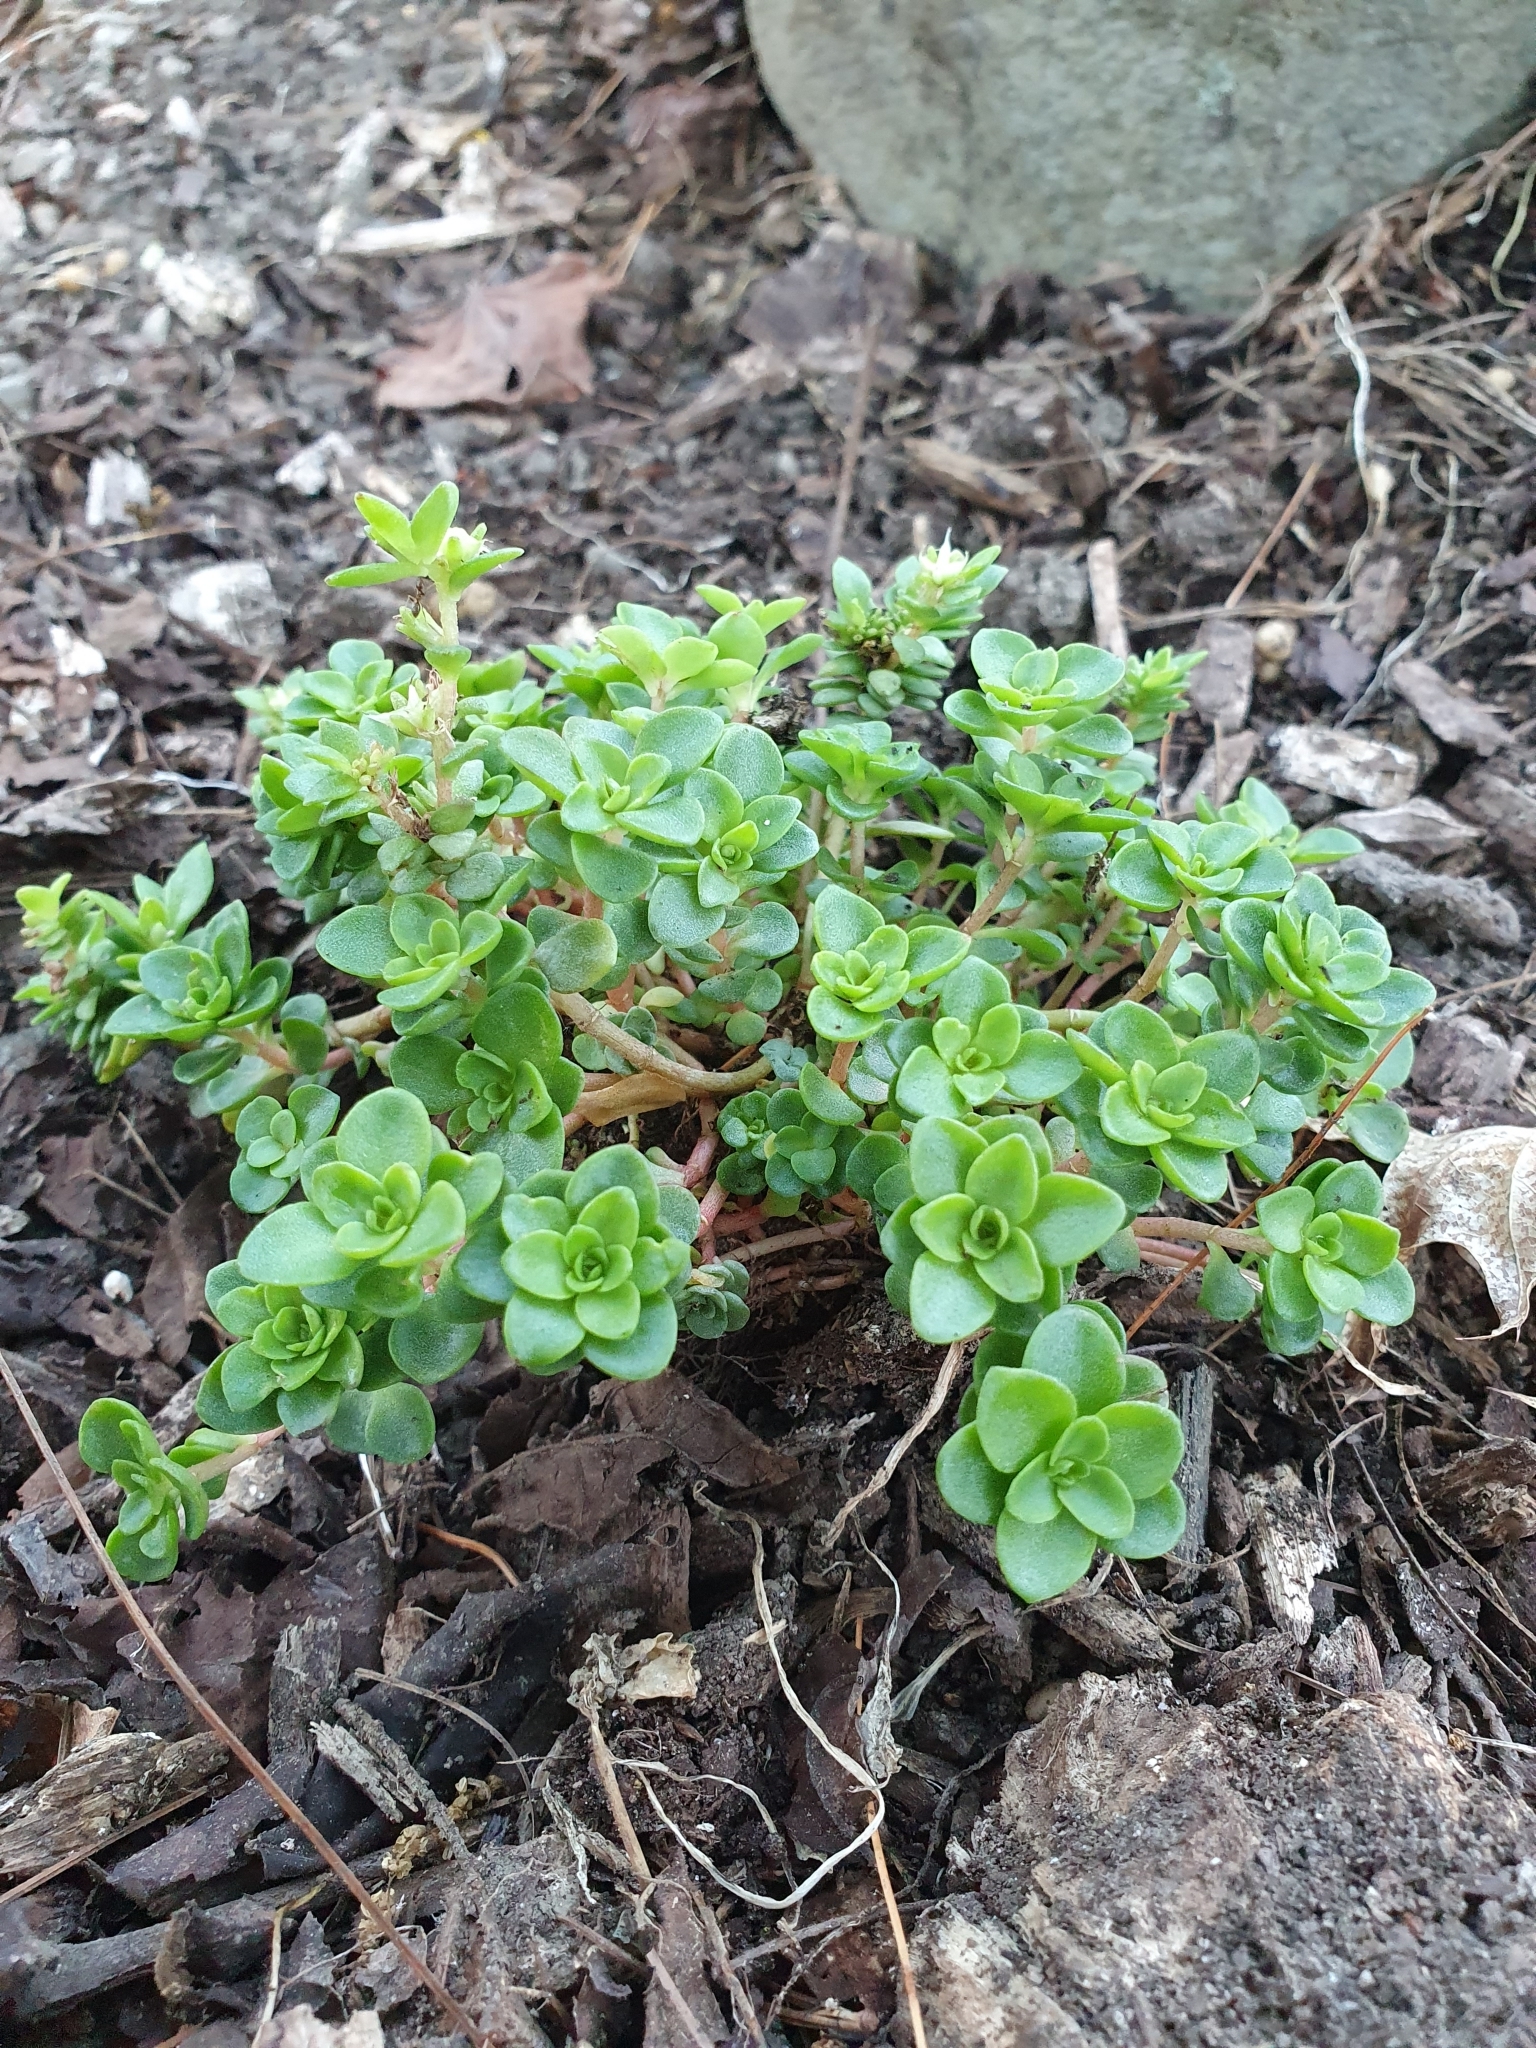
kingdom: Plantae
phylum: Tracheophyta
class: Magnoliopsida
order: Saxifragales
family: Crassulaceae
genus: Sedum
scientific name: Sedum ternatum
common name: Wild stonecrop
